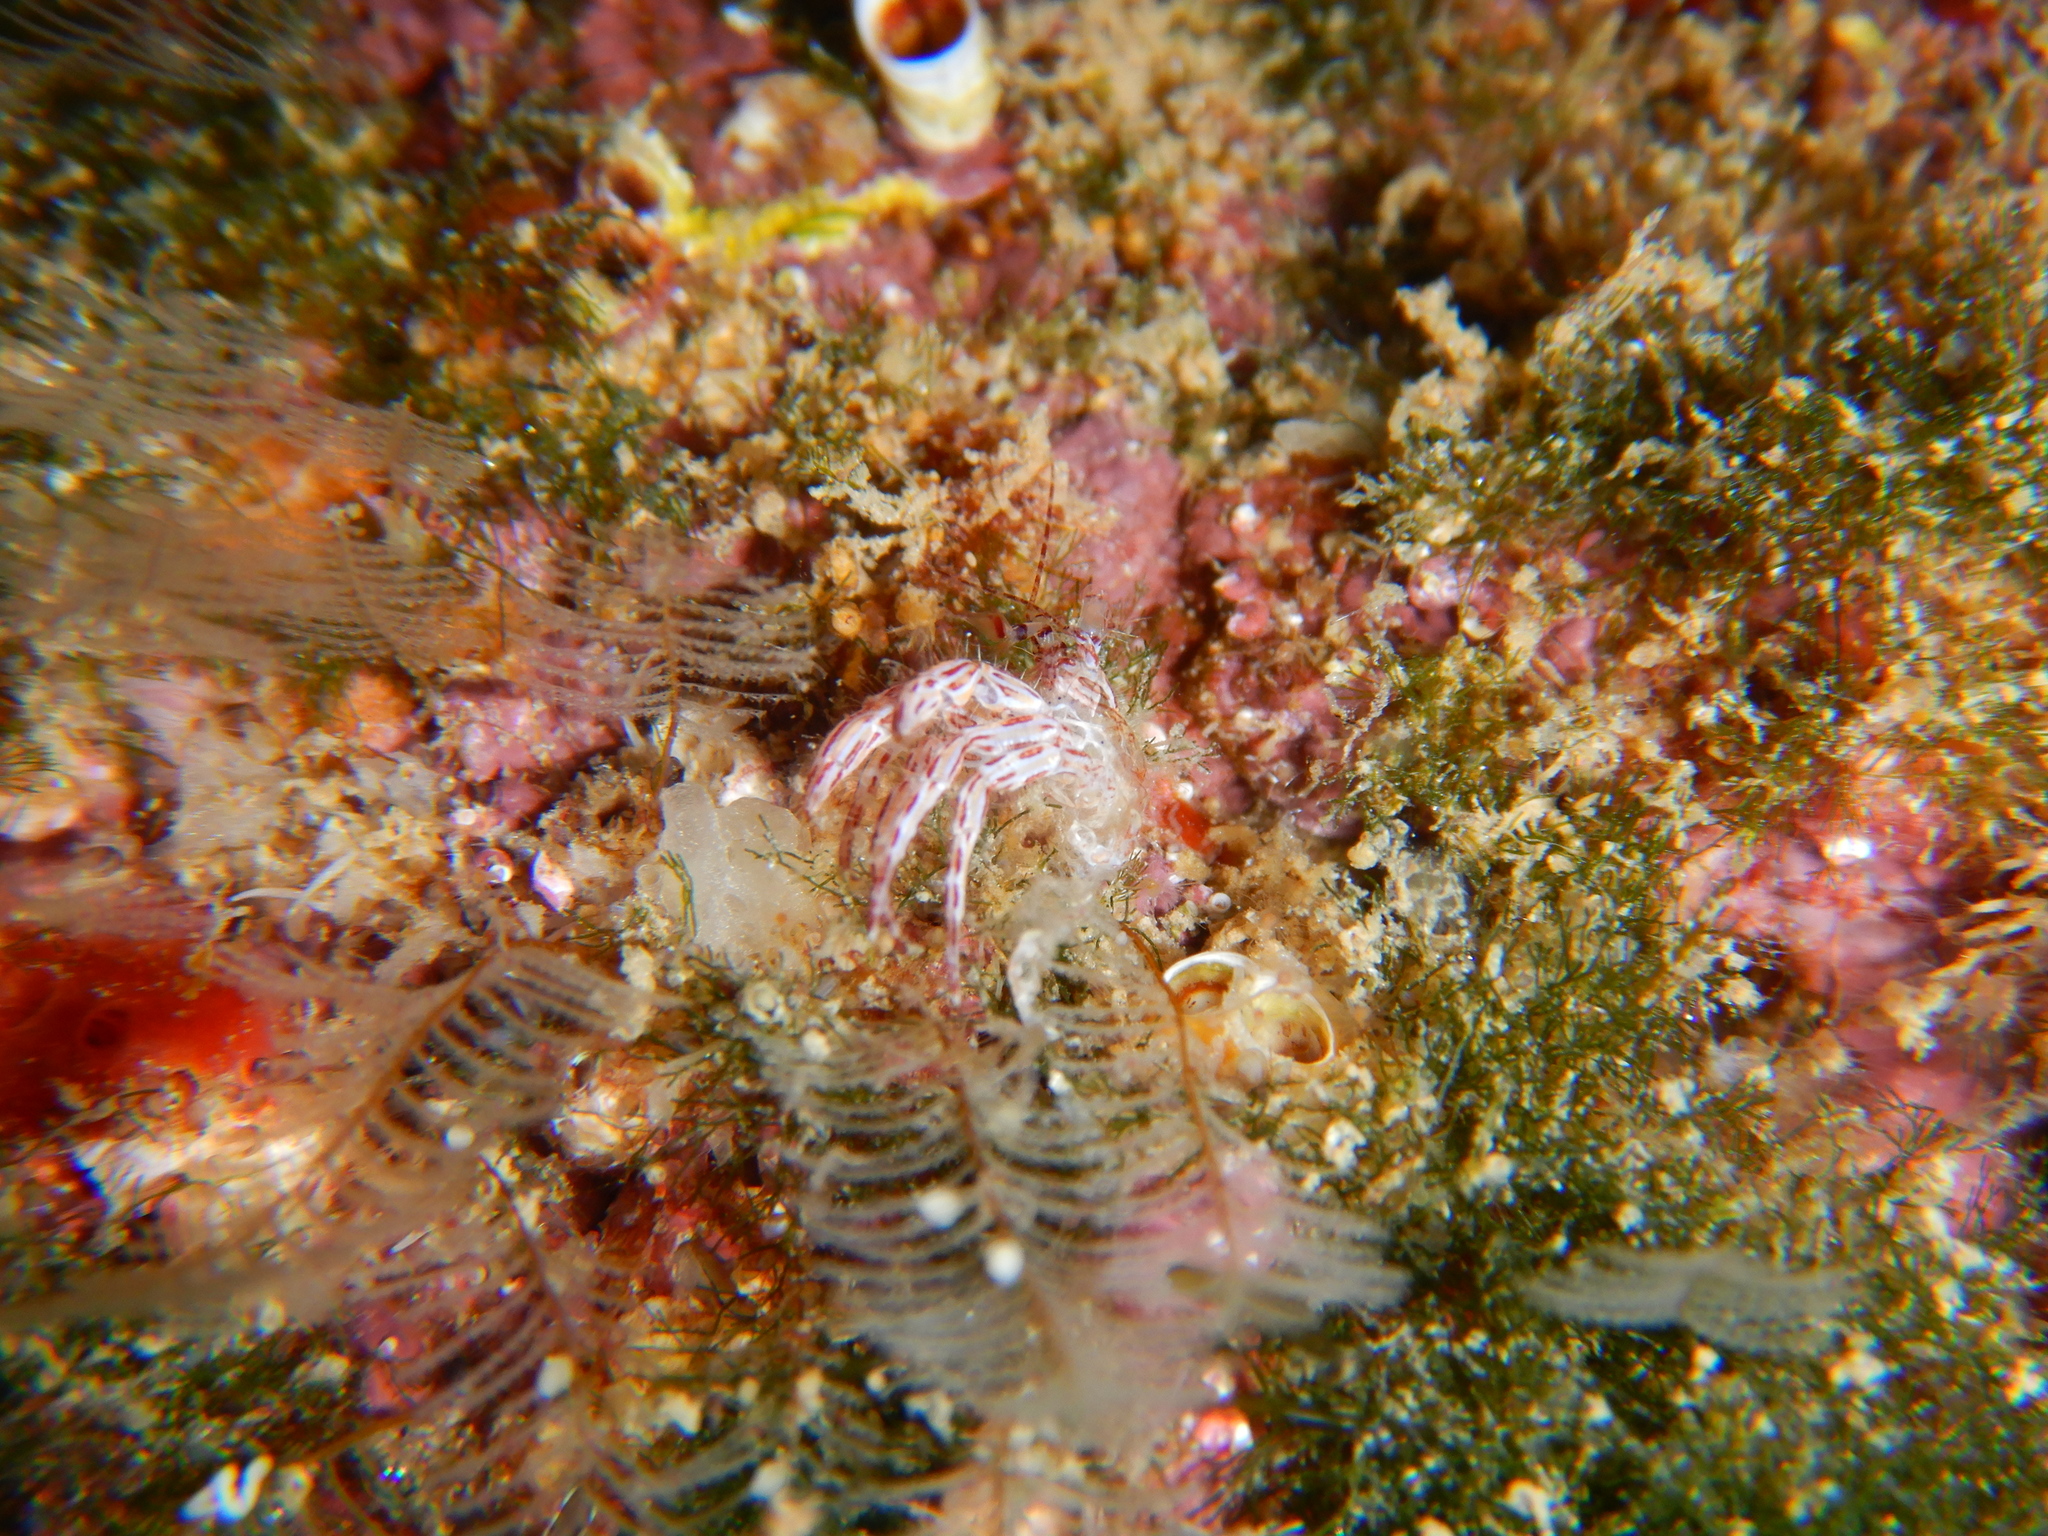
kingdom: Animalia
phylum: Arthropoda
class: Malacostraca
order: Decapoda
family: Paguridae
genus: Pagurus
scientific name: Pagurus anachoretus
